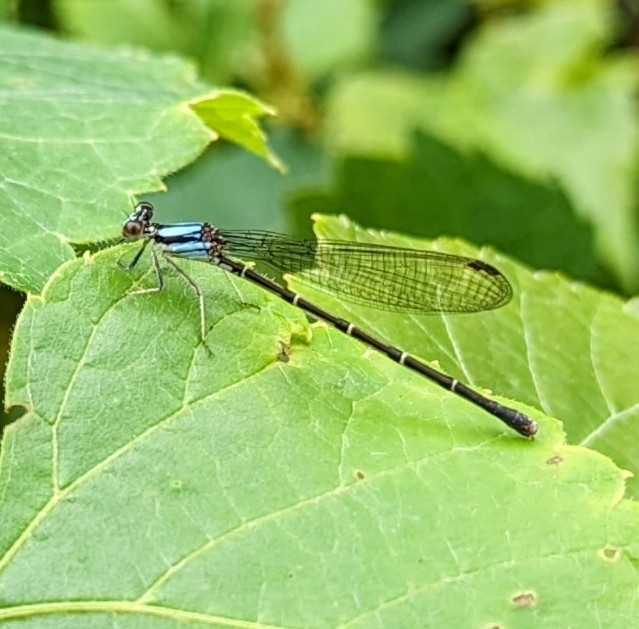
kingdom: Animalia
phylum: Arthropoda
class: Insecta
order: Odonata
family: Coenagrionidae
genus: Argia
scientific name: Argia tibialis
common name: Blue-tipped dancer
